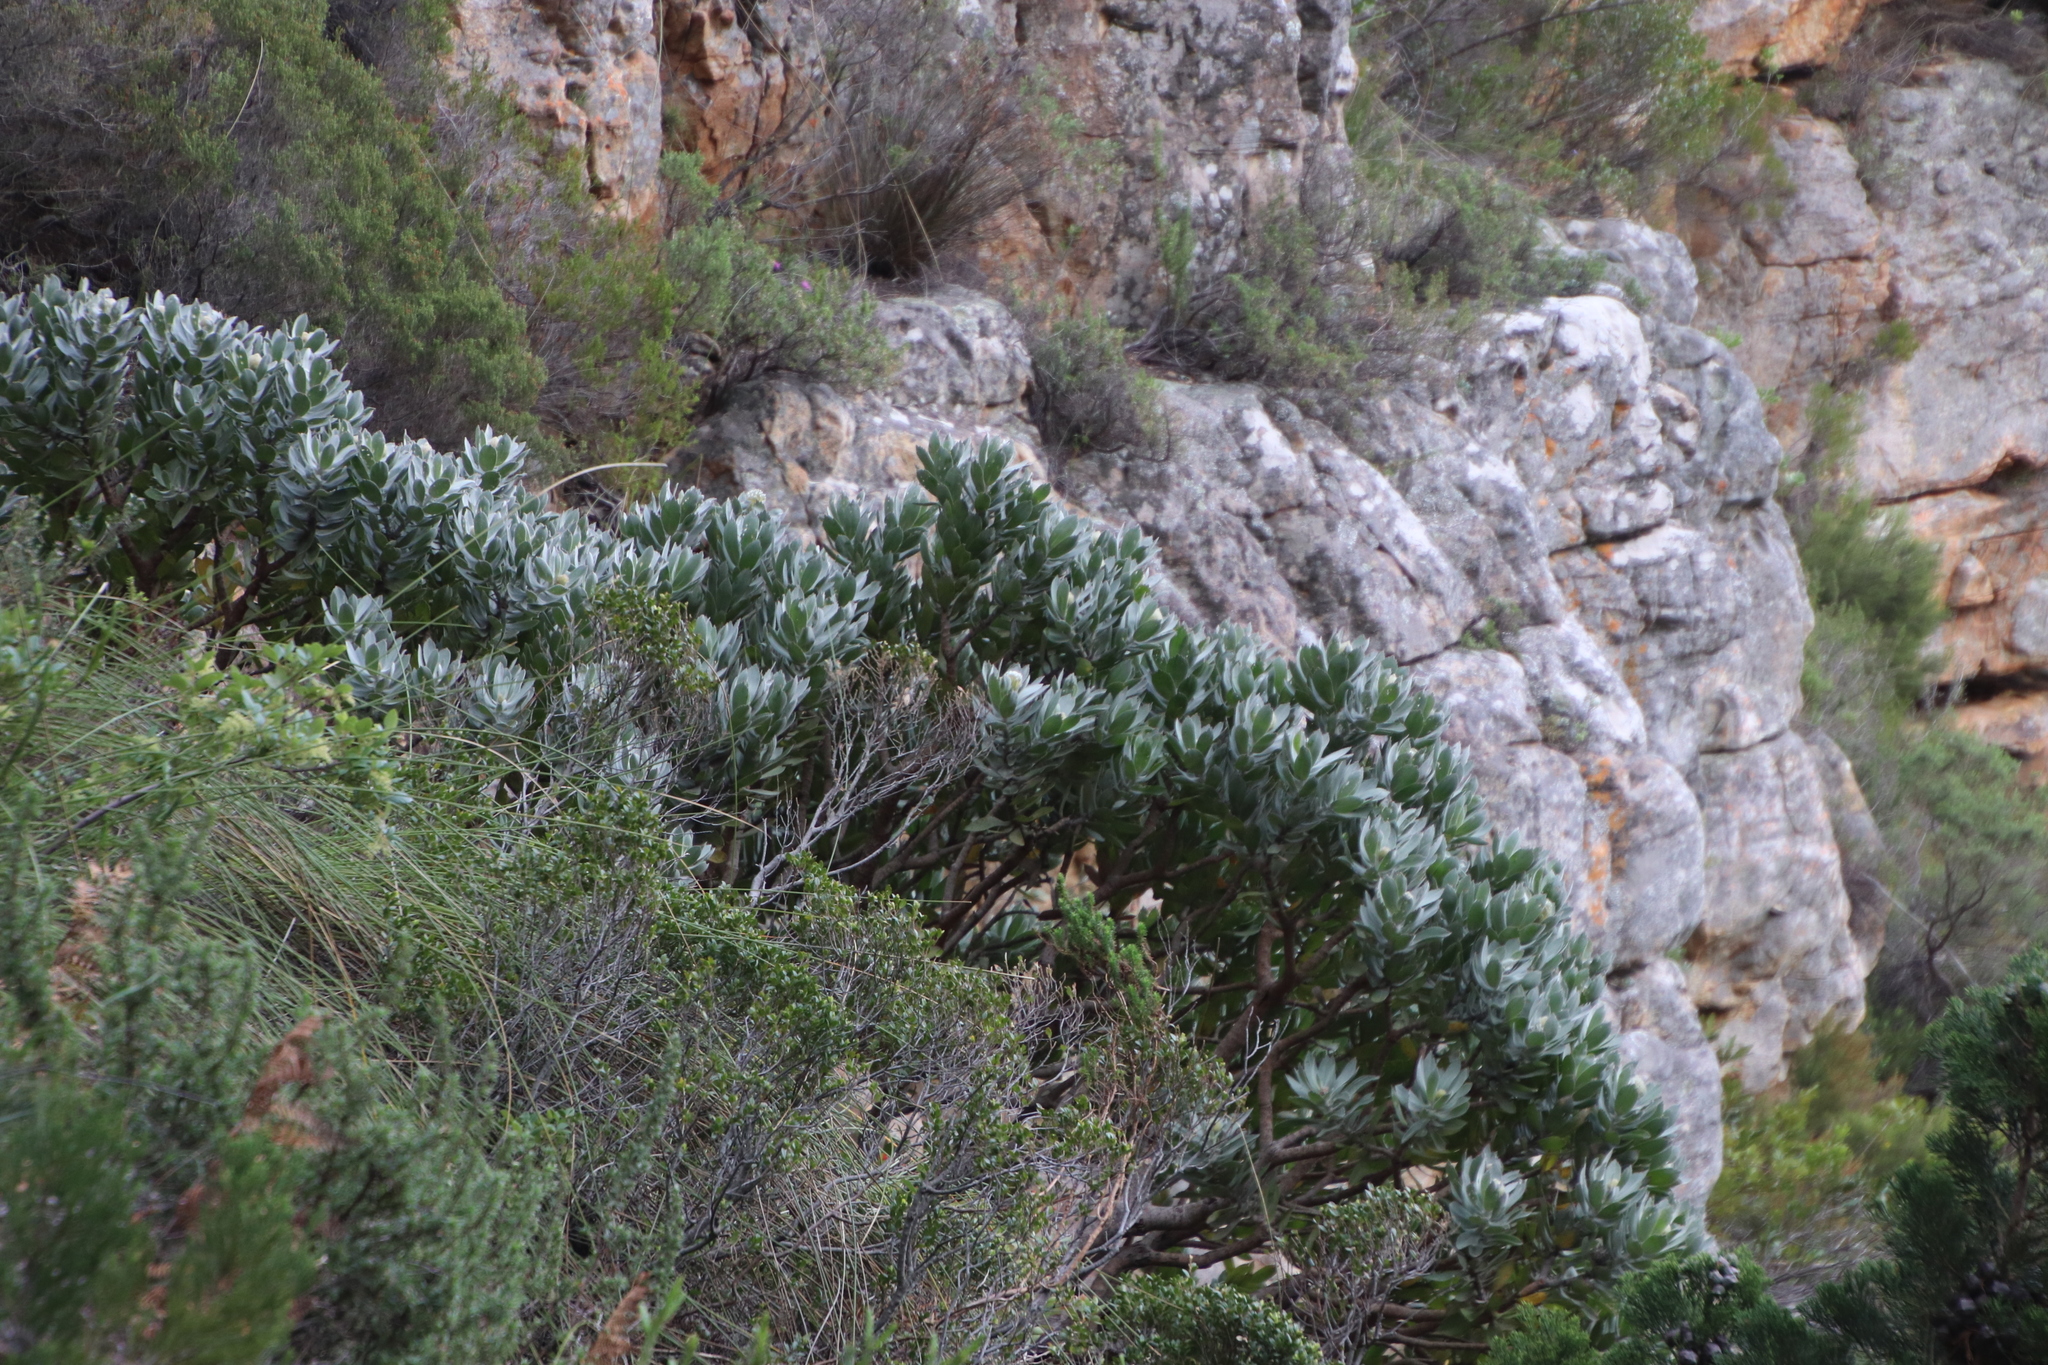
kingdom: Plantae
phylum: Tracheophyta
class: Magnoliopsida
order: Proteales
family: Proteaceae
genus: Leucospermum
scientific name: Leucospermum conocarpodendron
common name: Tree pincushion
